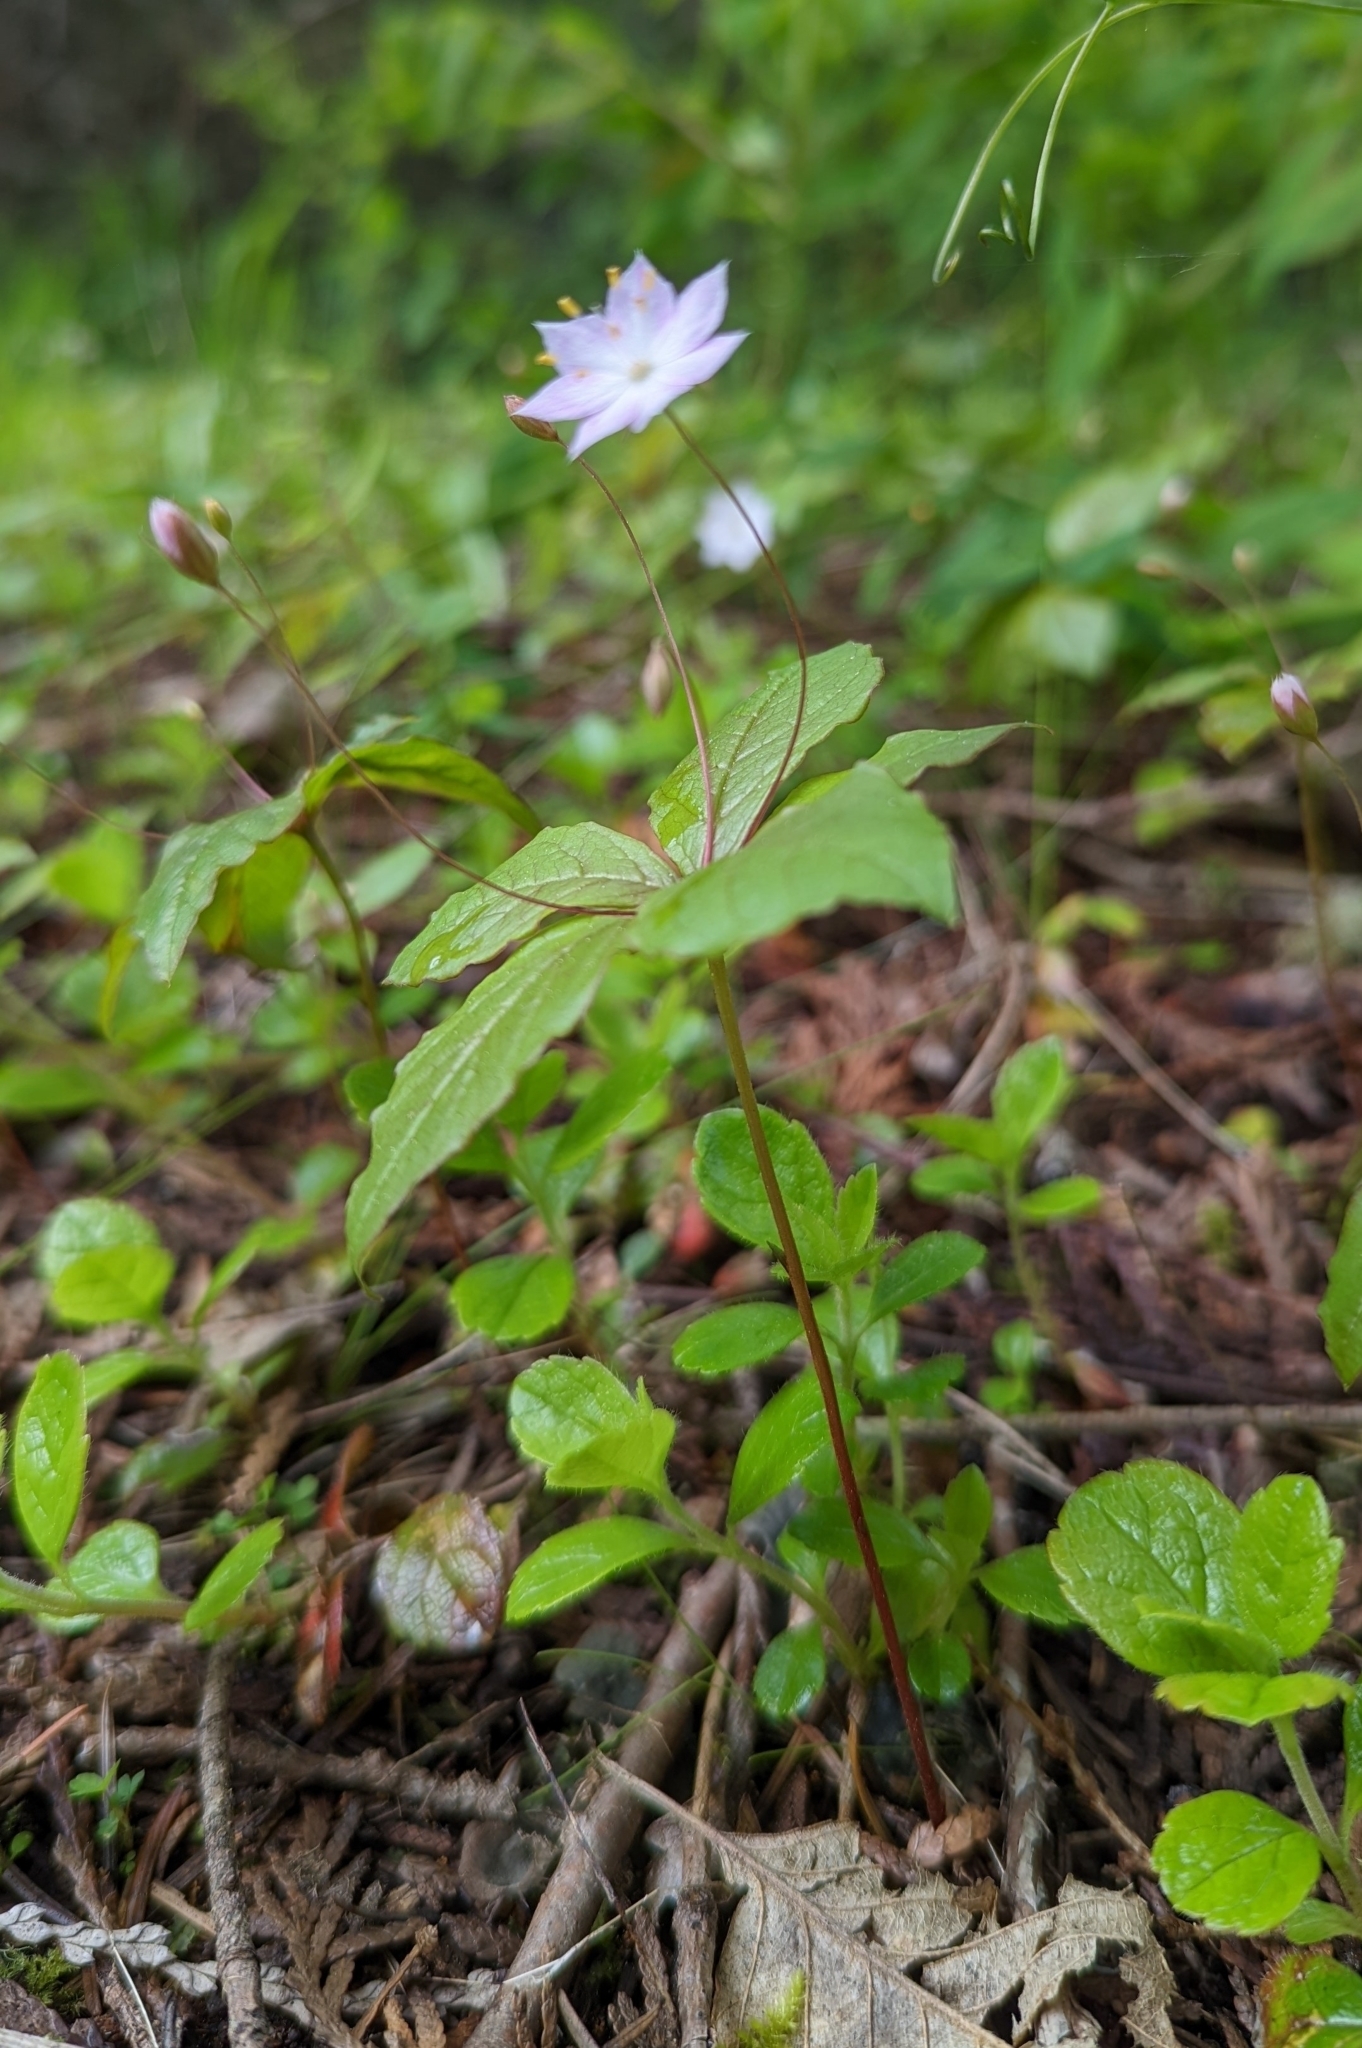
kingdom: Plantae
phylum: Tracheophyta
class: Magnoliopsida
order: Ericales
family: Primulaceae
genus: Lysimachia
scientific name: Lysimachia latifolia
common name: Pacific starflower
